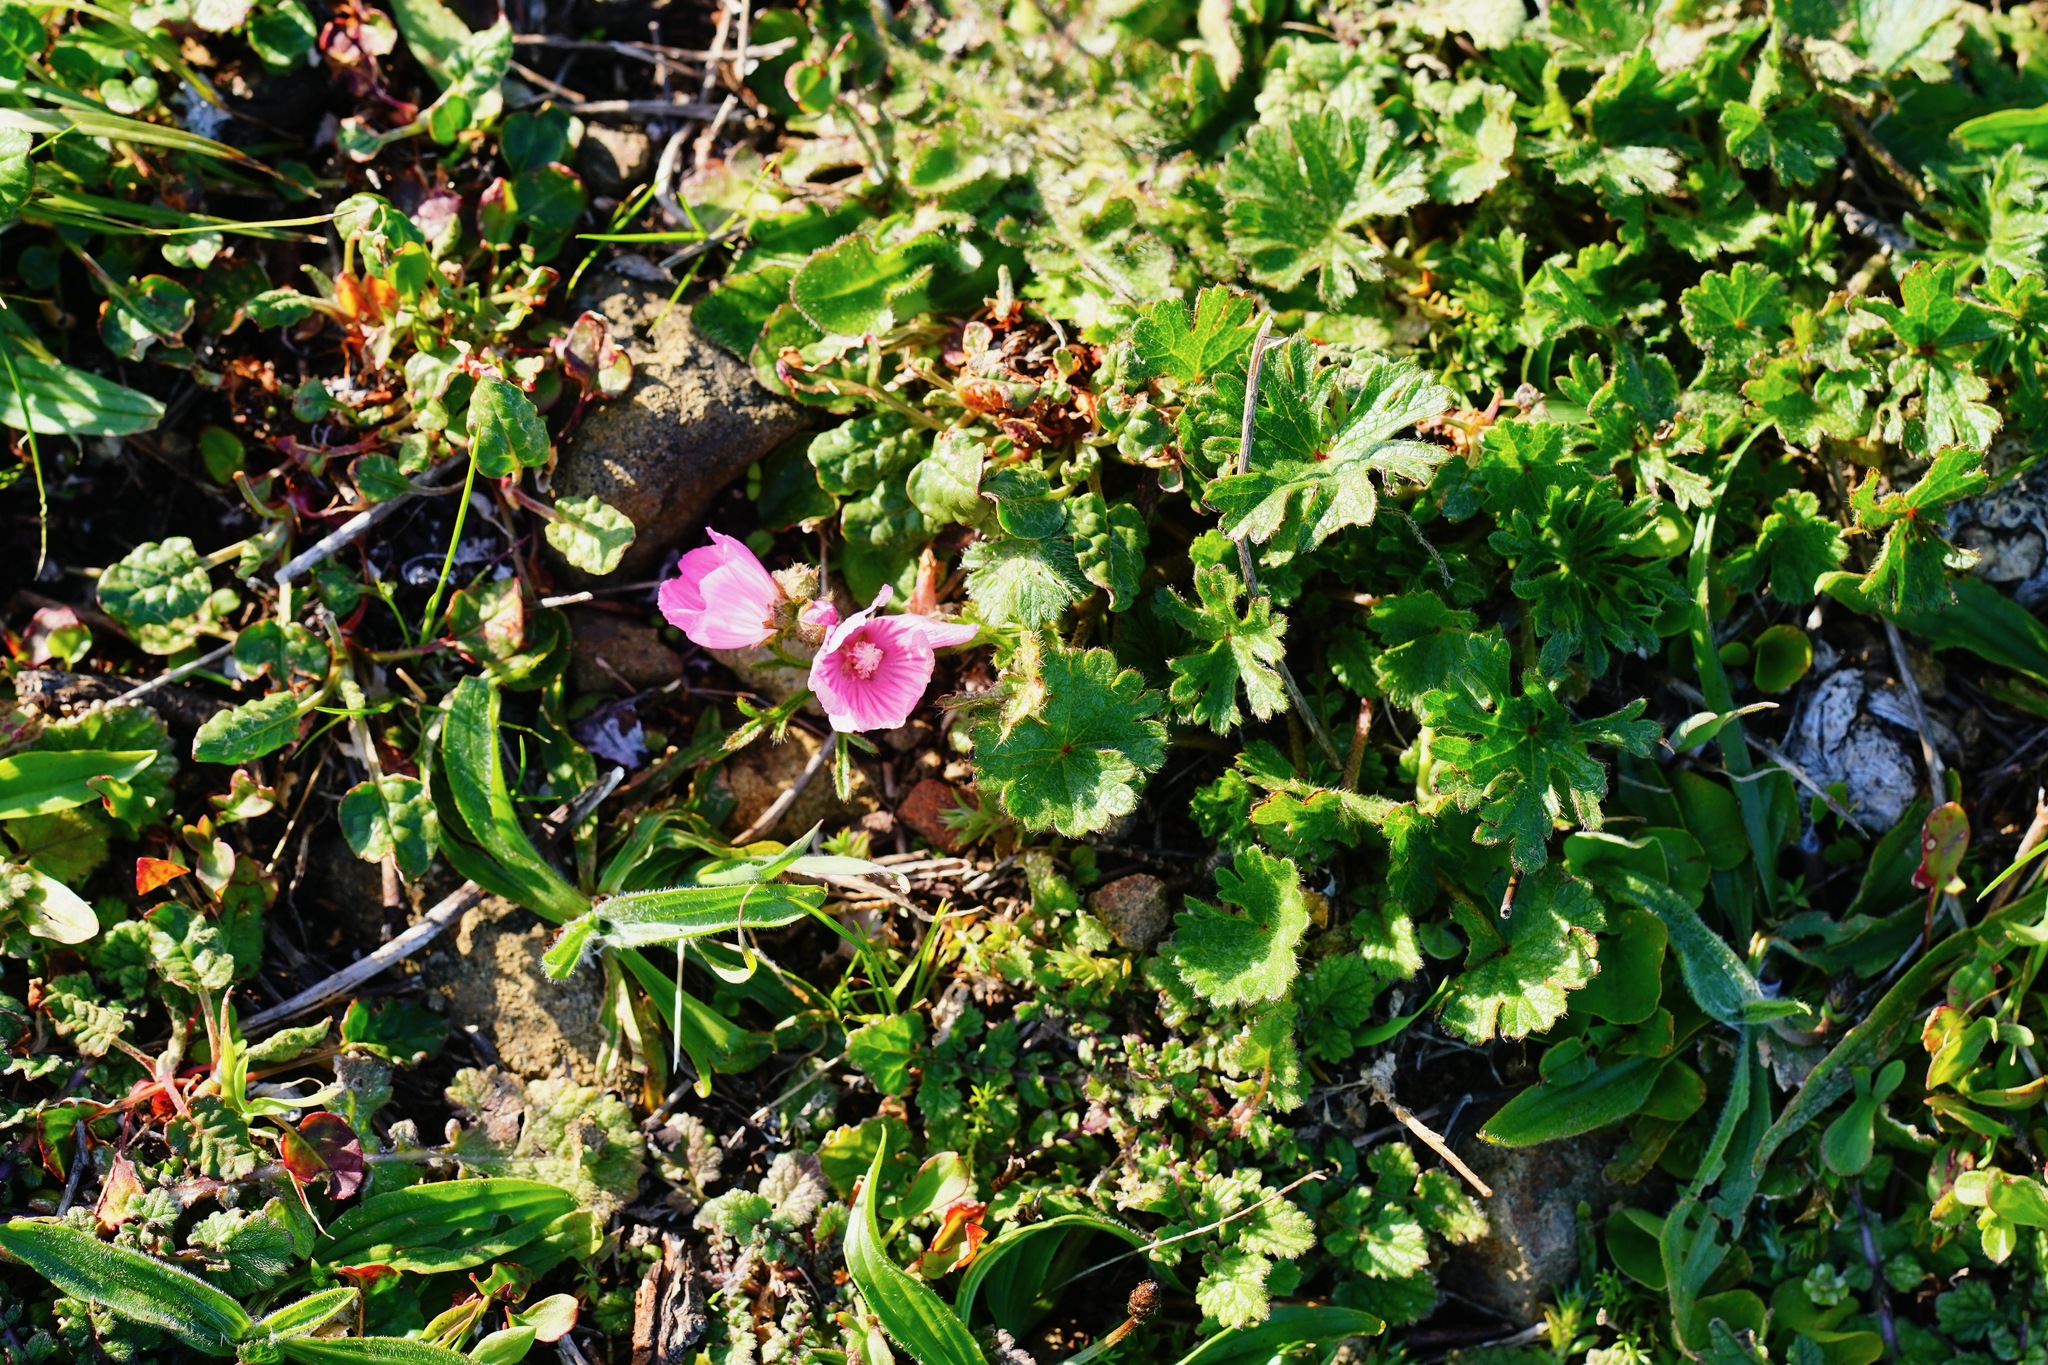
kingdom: Plantae
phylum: Tracheophyta
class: Magnoliopsida
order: Malvales
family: Malvaceae
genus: Sidalcea
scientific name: Sidalcea malviflora
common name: Greek mallow
